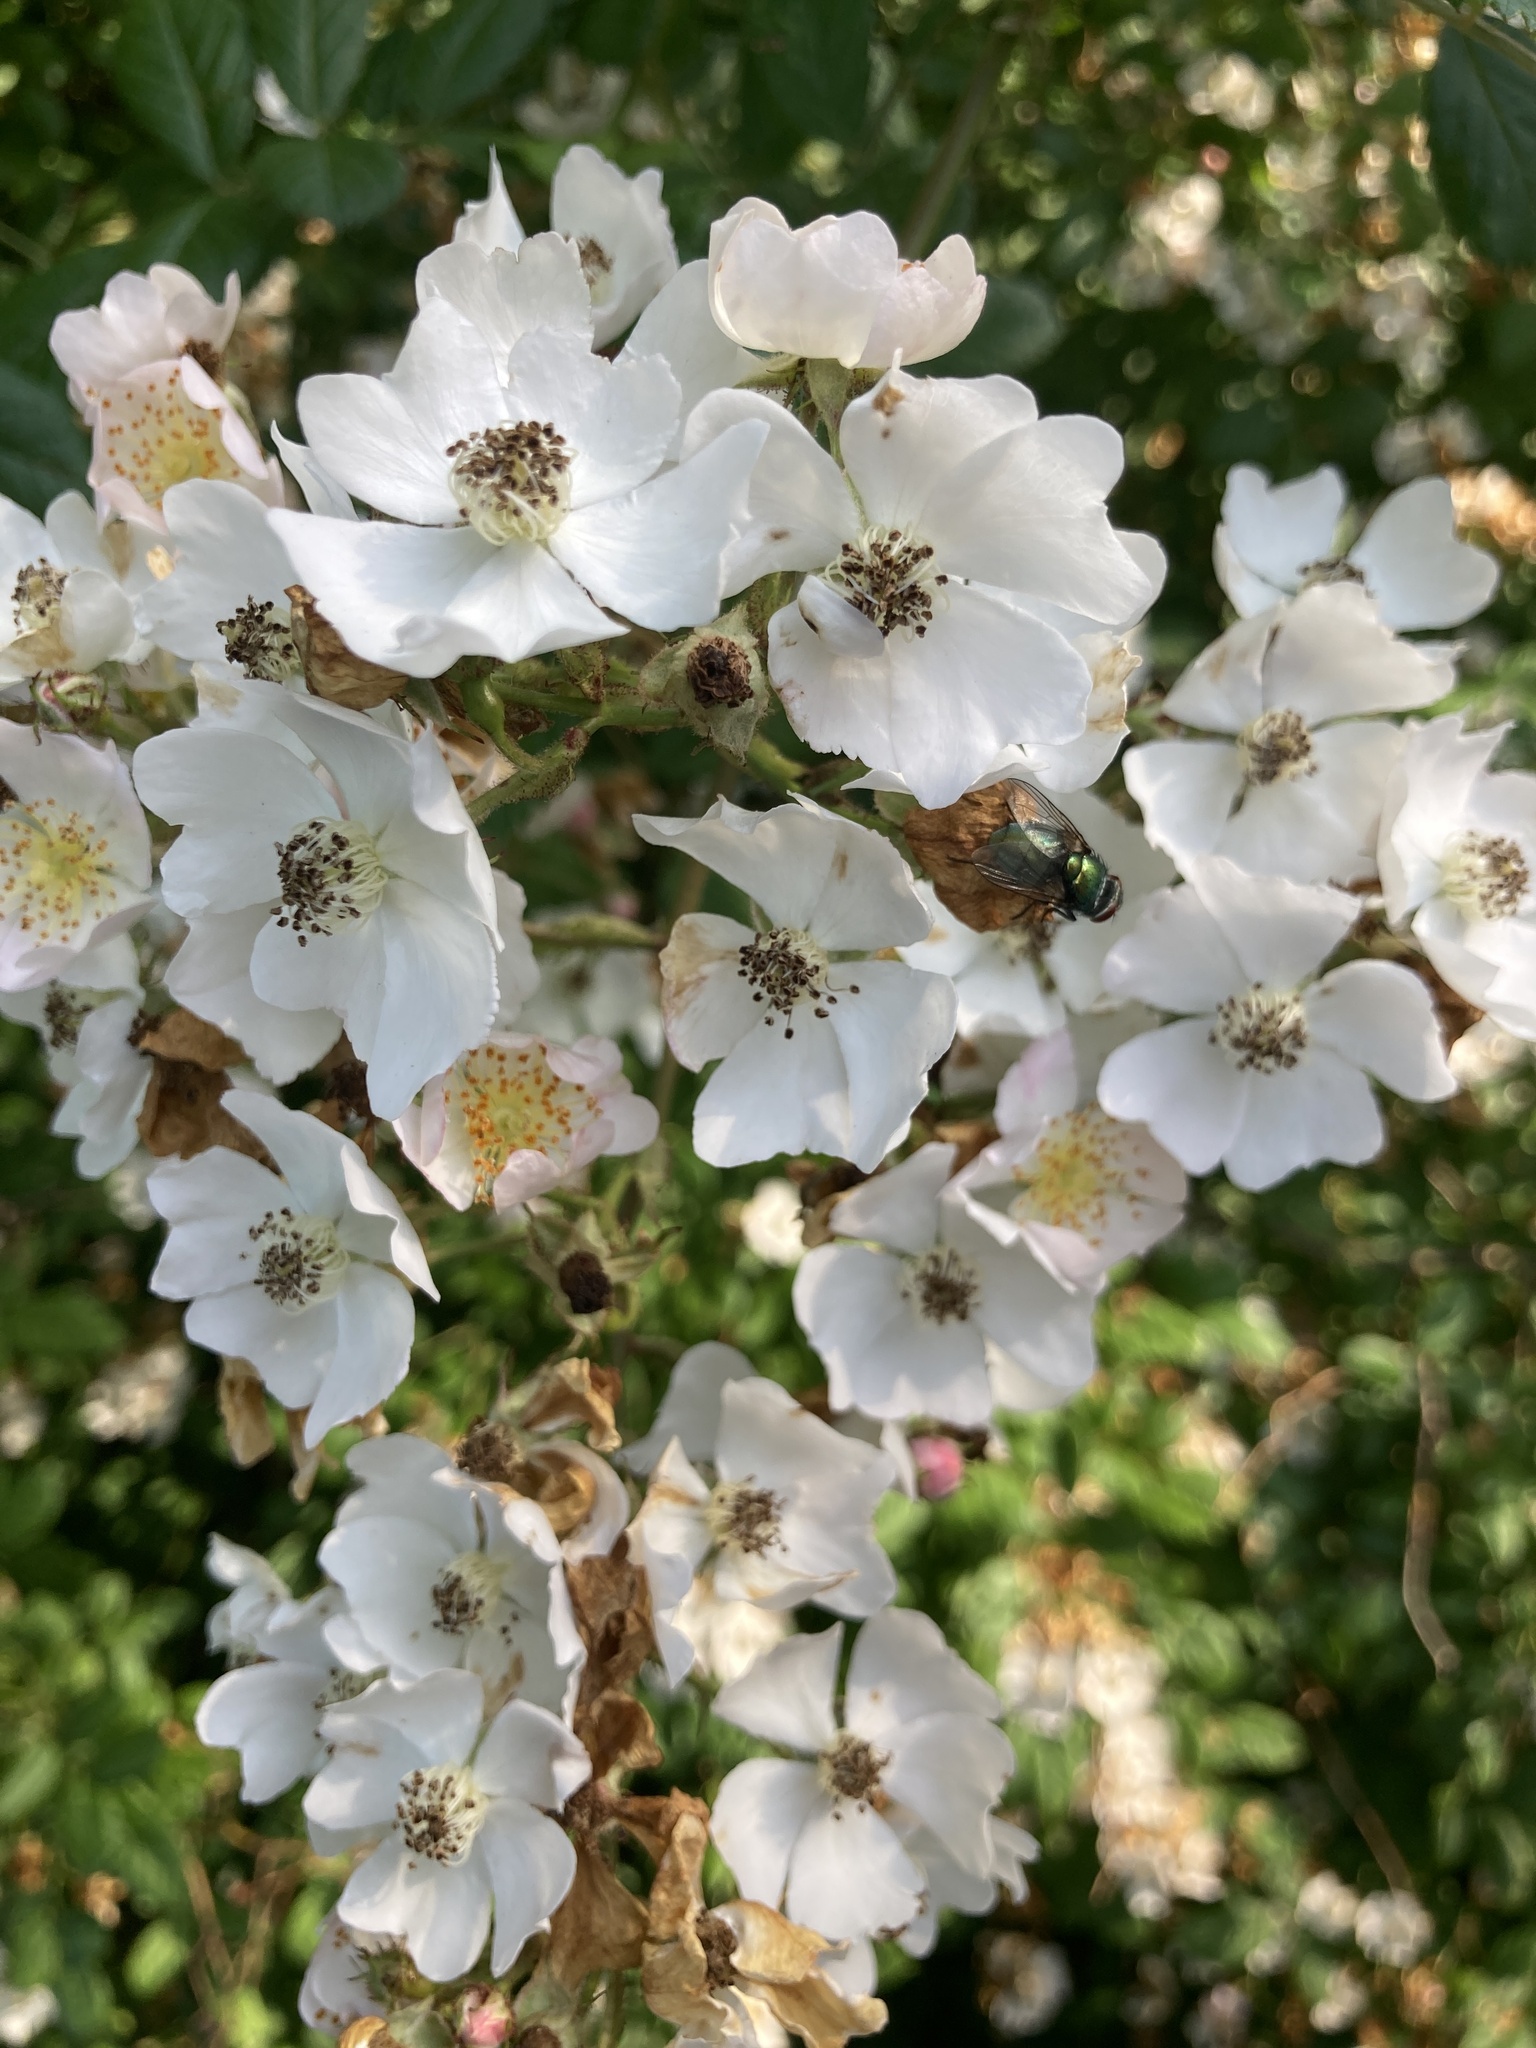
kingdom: Plantae
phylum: Tracheophyta
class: Magnoliopsida
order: Rosales
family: Rosaceae
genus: Rosa
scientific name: Rosa multiflora
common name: Multiflora rose
